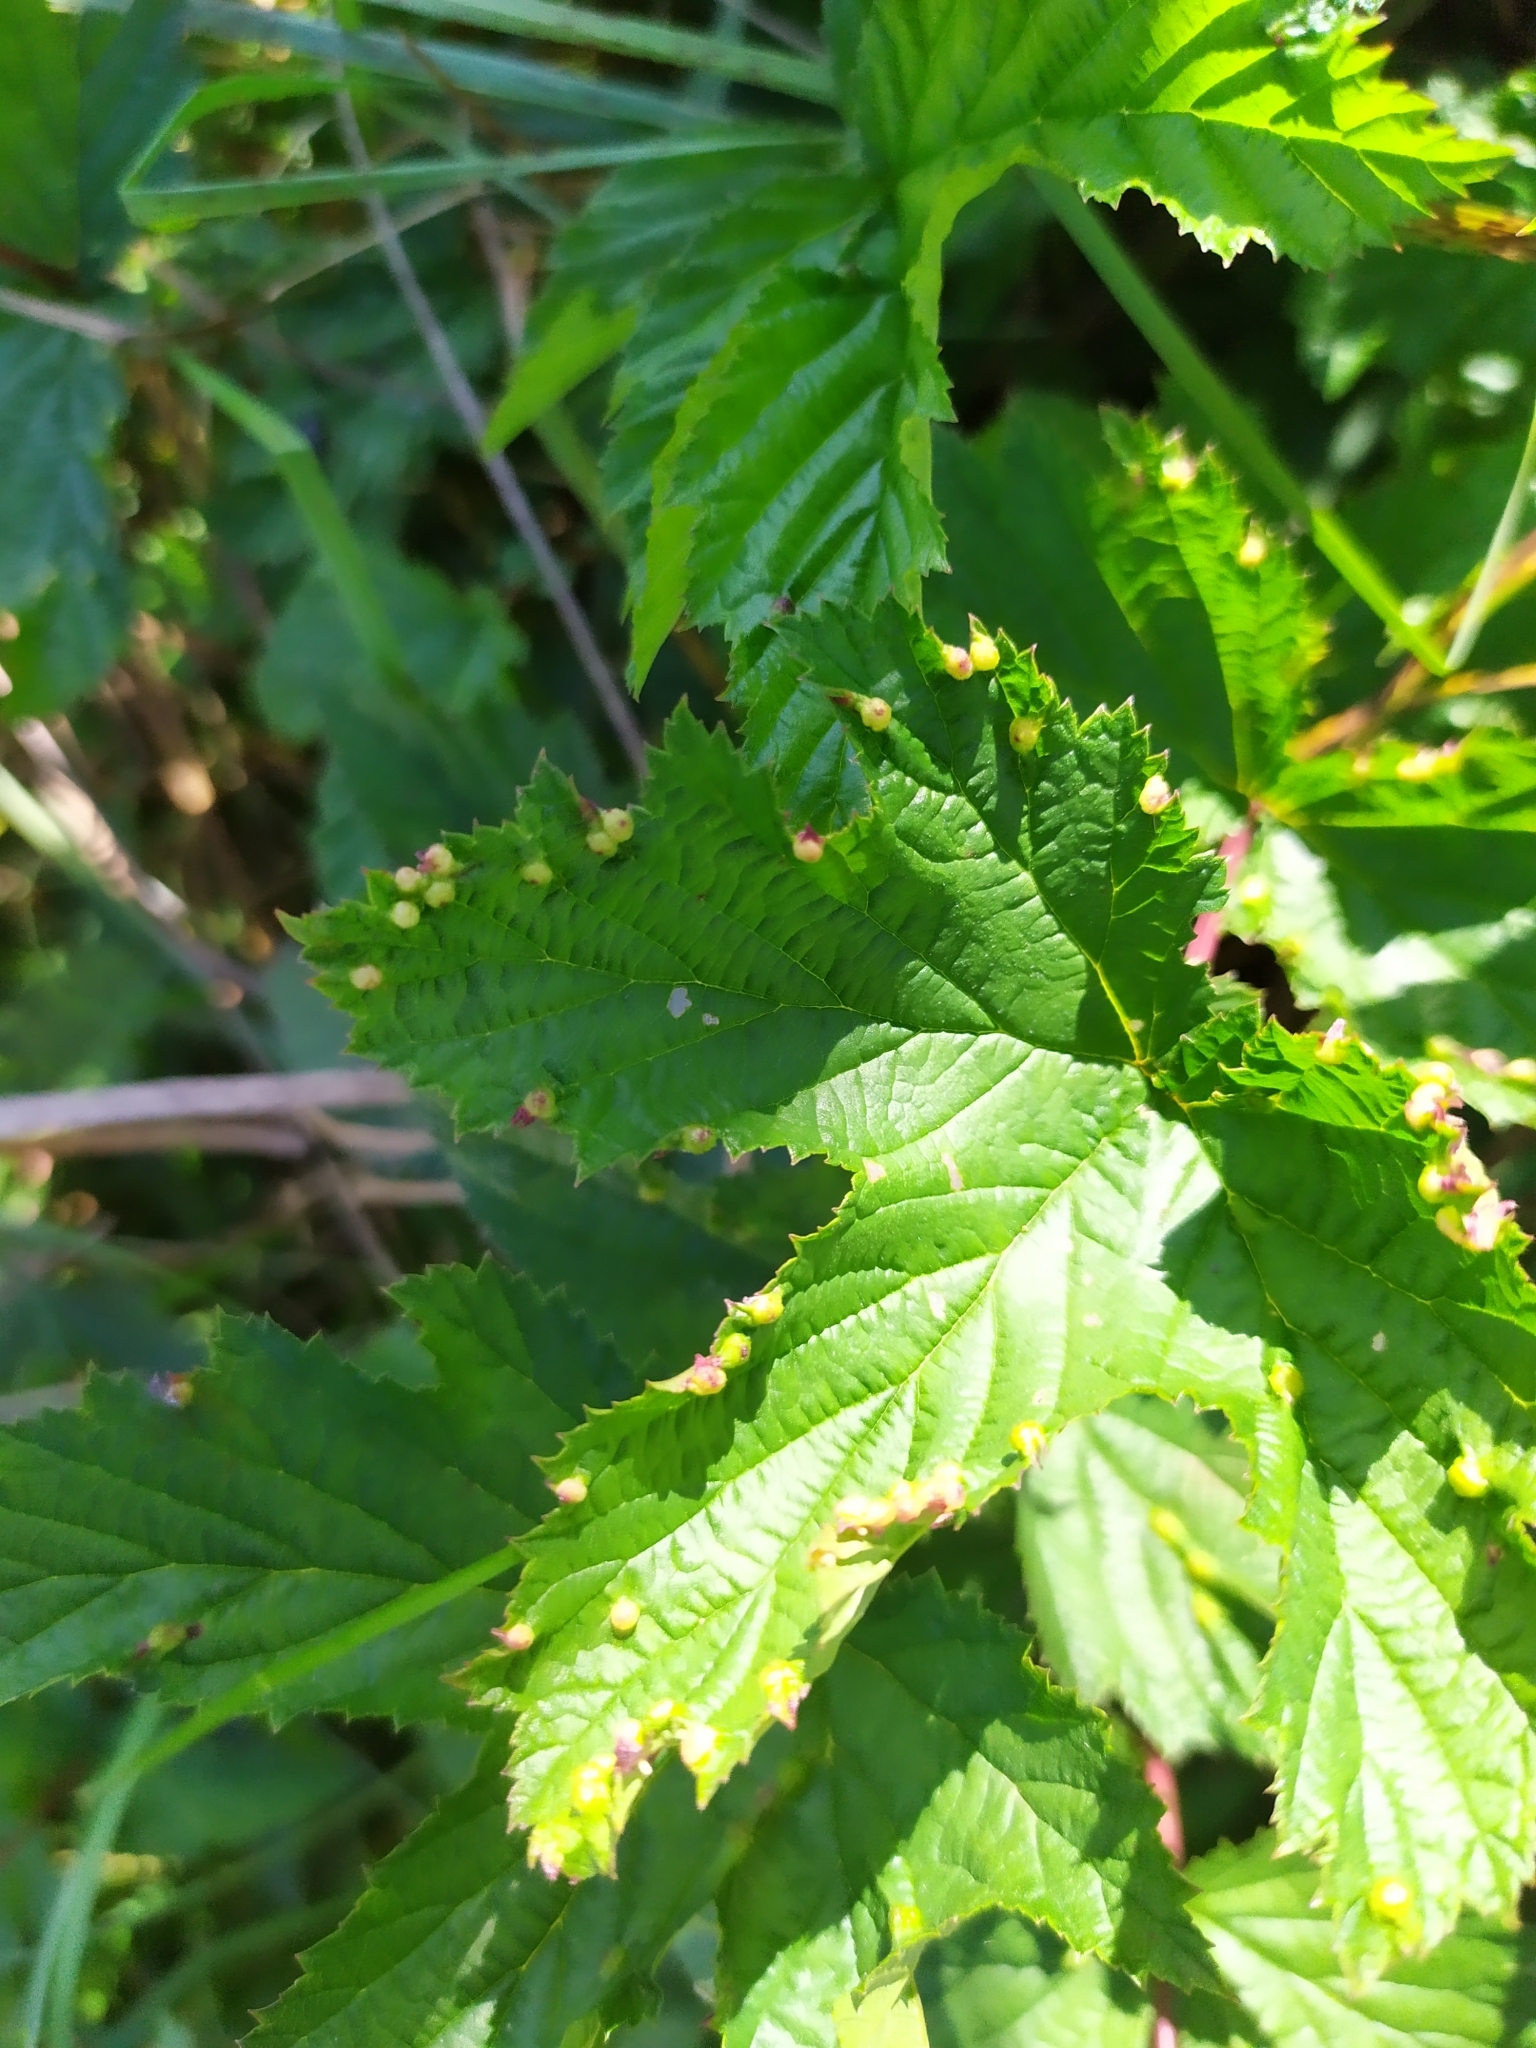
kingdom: Animalia
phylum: Arthropoda
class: Insecta
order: Diptera
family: Cecidomyiidae
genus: Dasineura
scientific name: Dasineura ulmaria
